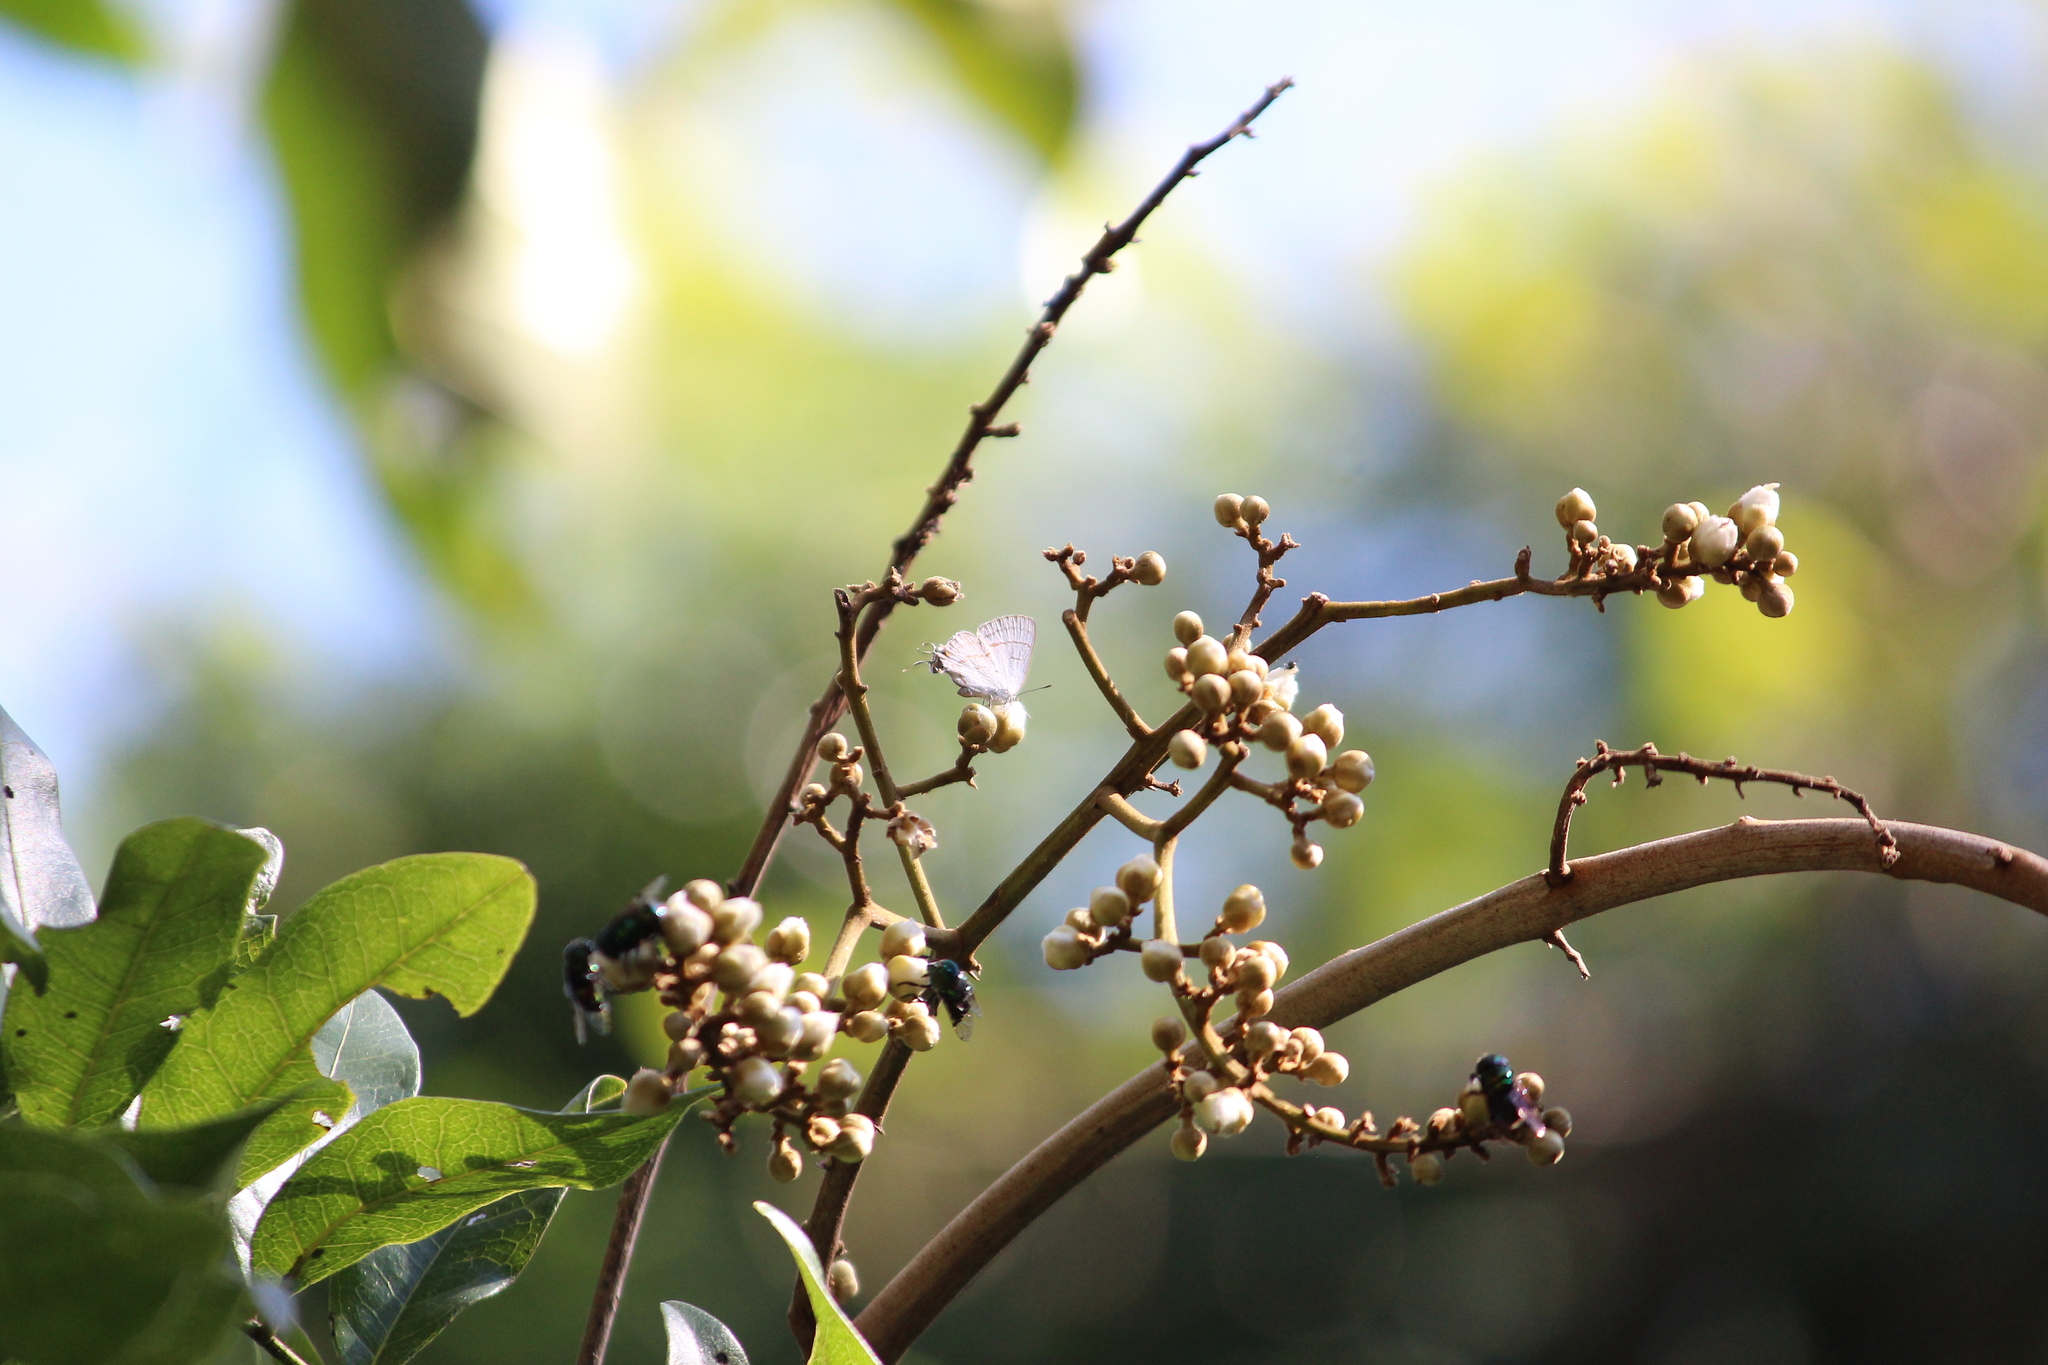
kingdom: Animalia
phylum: Arthropoda
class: Insecta
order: Lepidoptera
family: Lycaenidae
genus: Hypolycaena
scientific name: Hypolycaena philippus
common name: Common hairstreak
